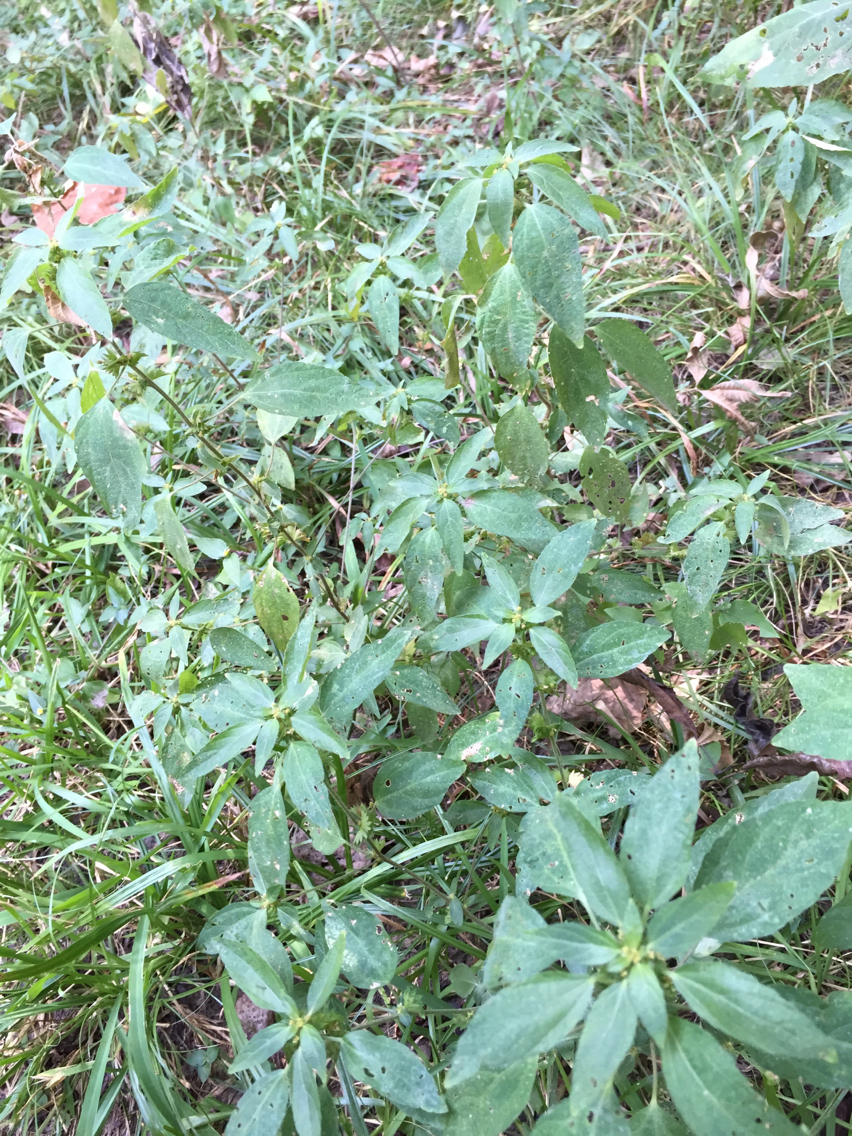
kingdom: Plantae
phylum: Tracheophyta
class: Magnoliopsida
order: Malpighiales
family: Euphorbiaceae
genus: Acalypha
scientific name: Acalypha virginica
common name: Virginia copperleaf
